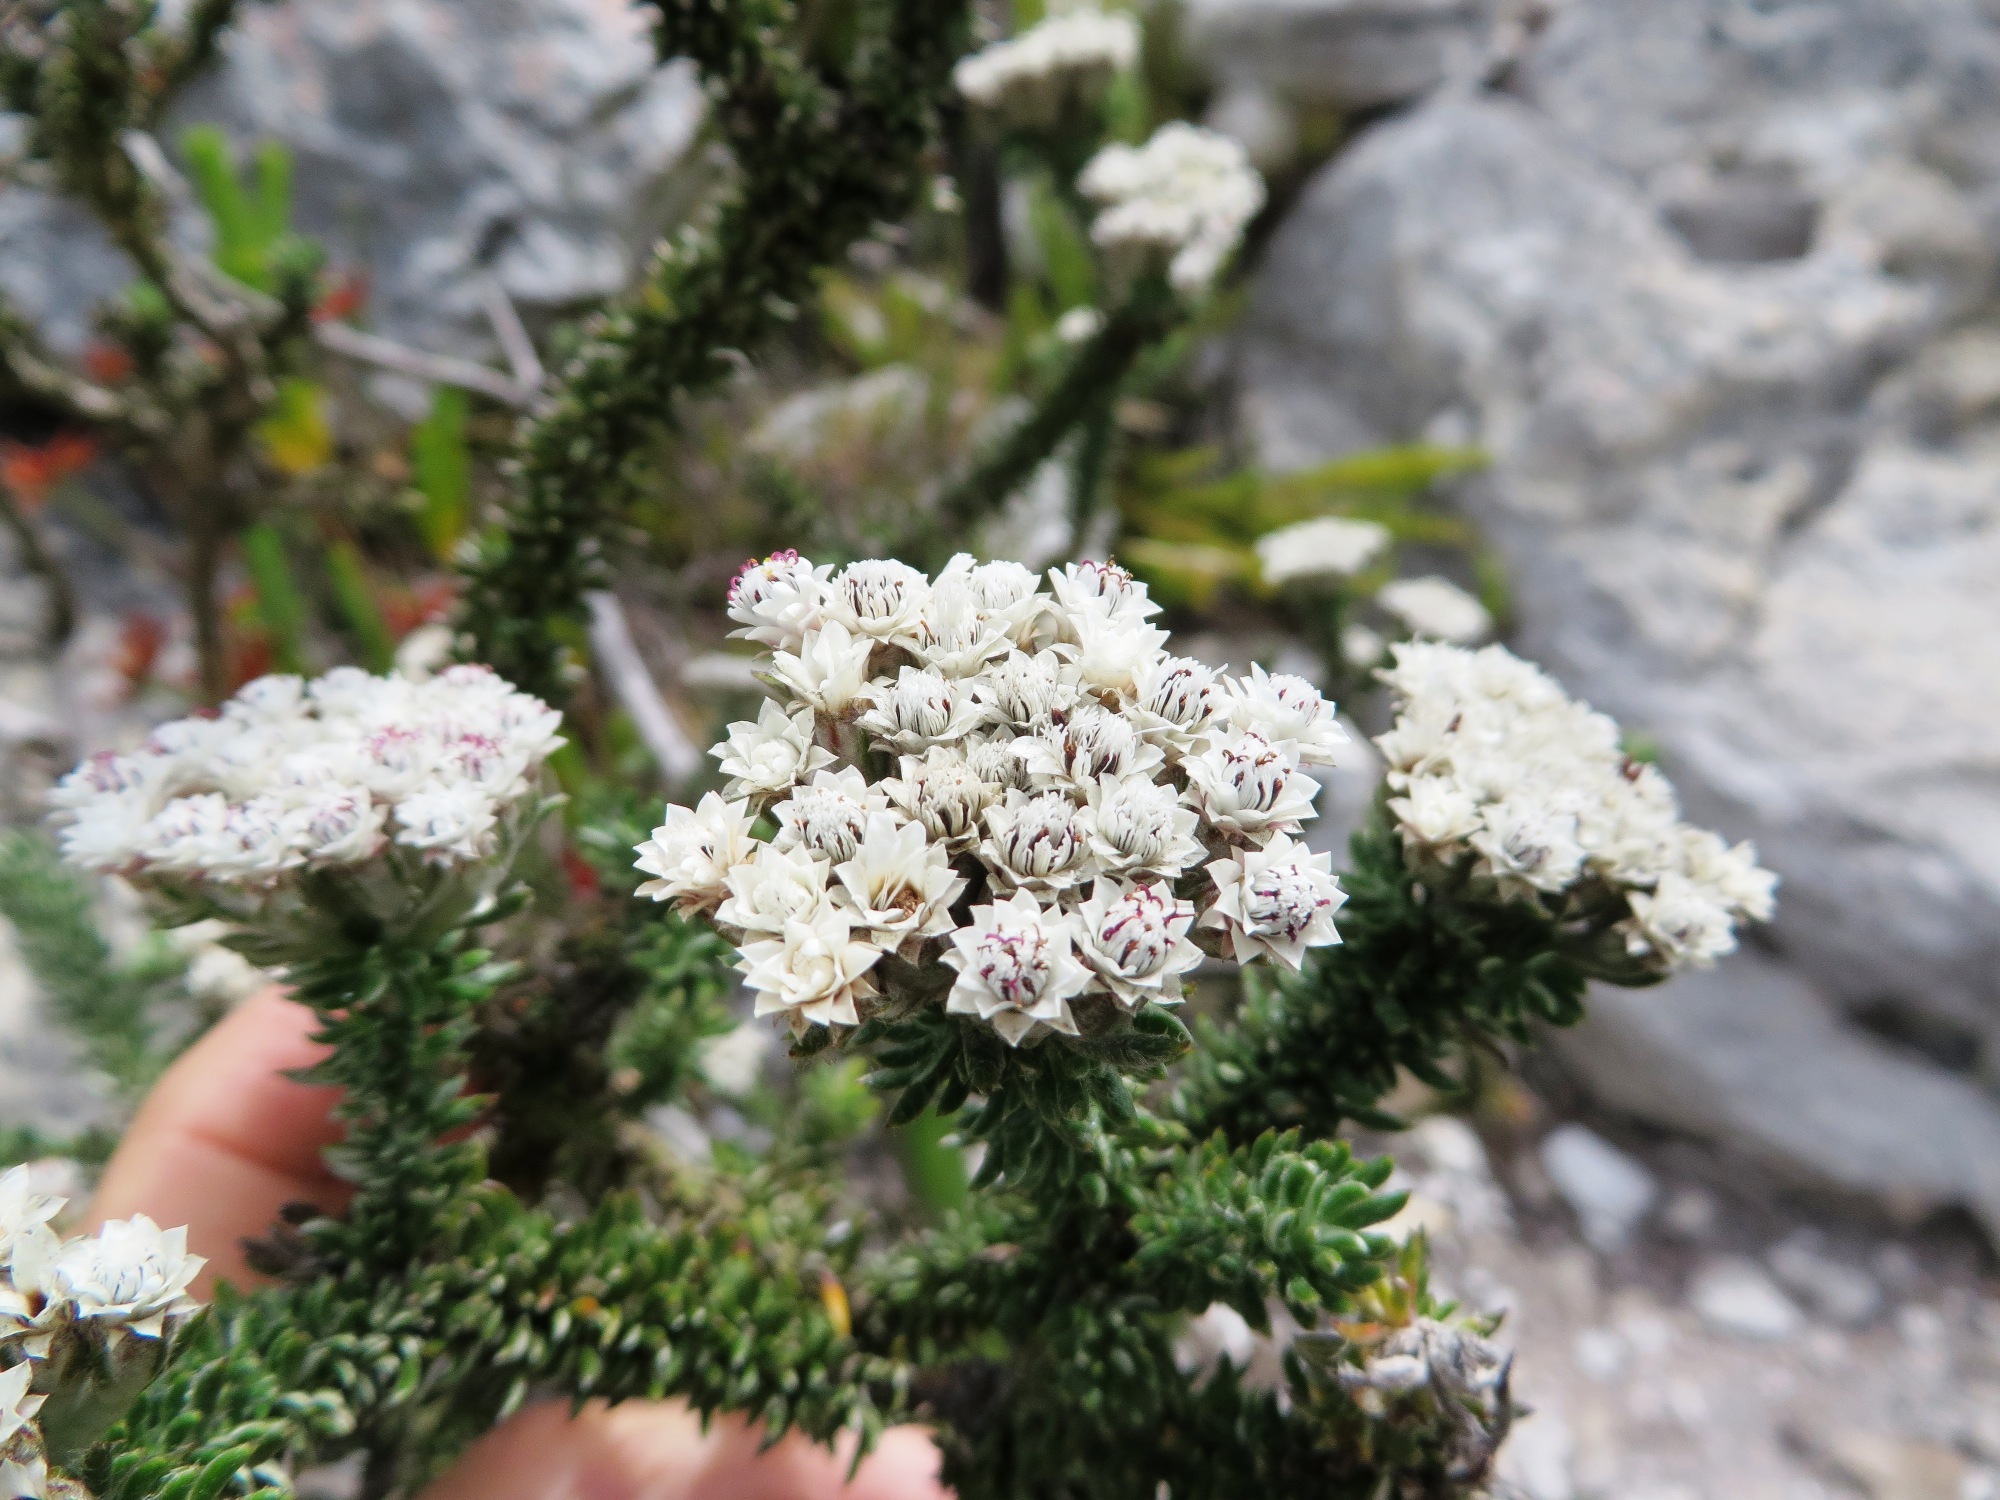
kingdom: Plantae
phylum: Tracheophyta
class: Magnoliopsida
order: Asterales
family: Asteraceae
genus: Metalasia
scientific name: Metalasia lichtensteinii
